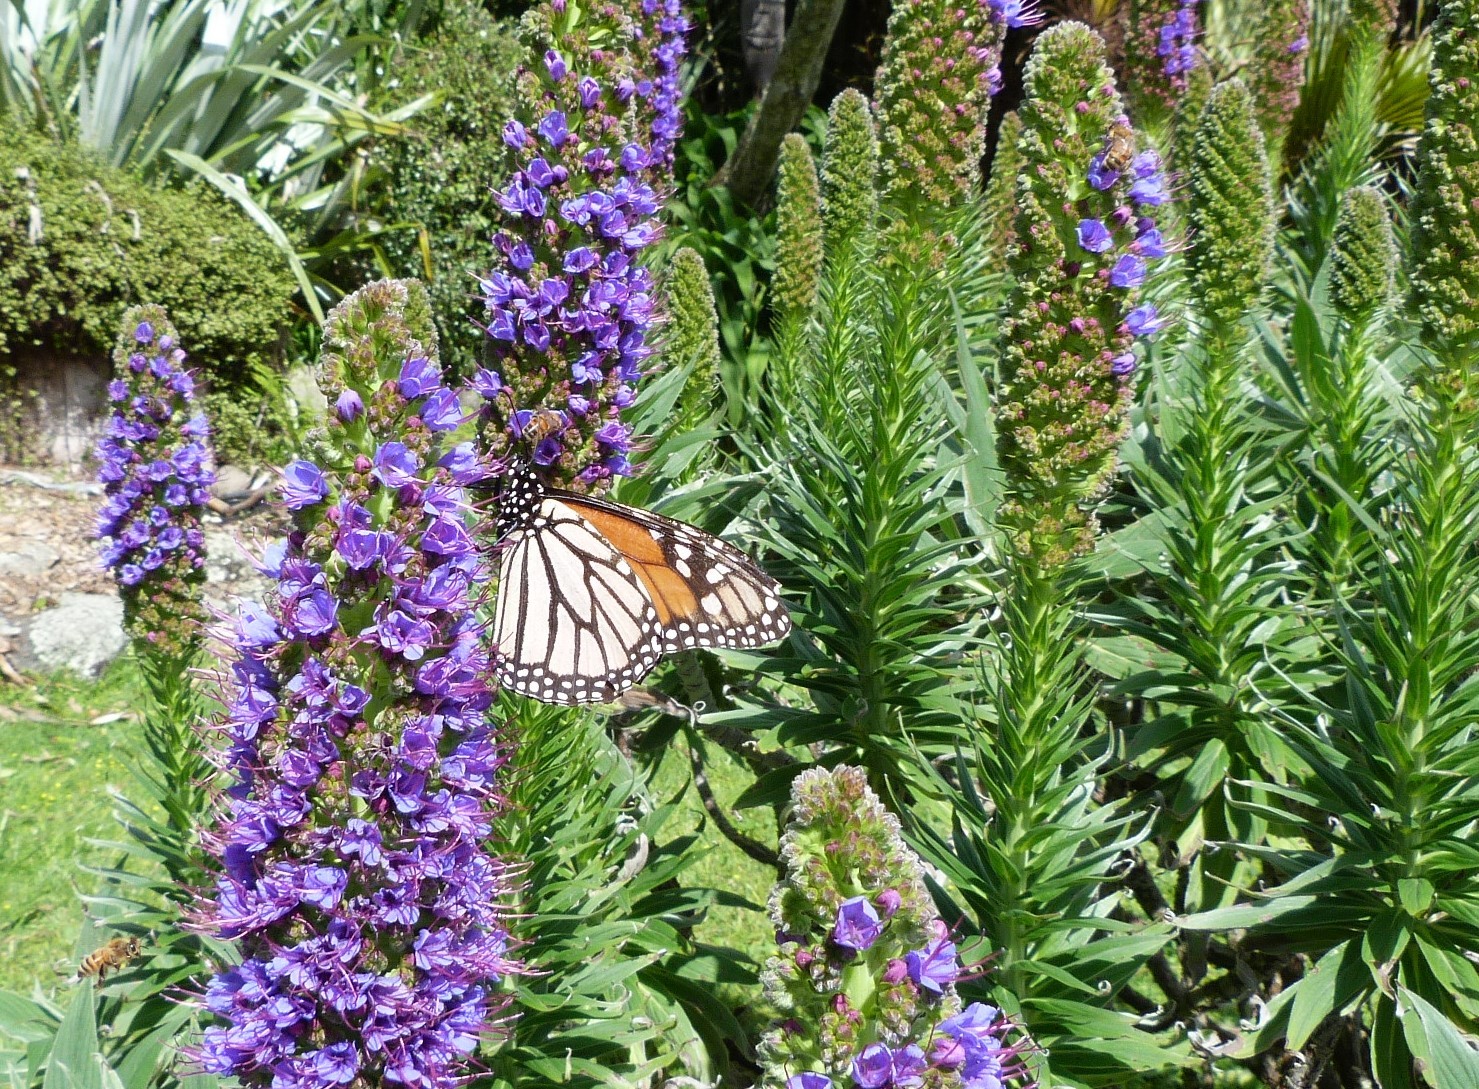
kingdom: Animalia
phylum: Arthropoda
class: Insecta
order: Lepidoptera
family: Nymphalidae
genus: Danaus
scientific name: Danaus plexippus
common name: Monarch
